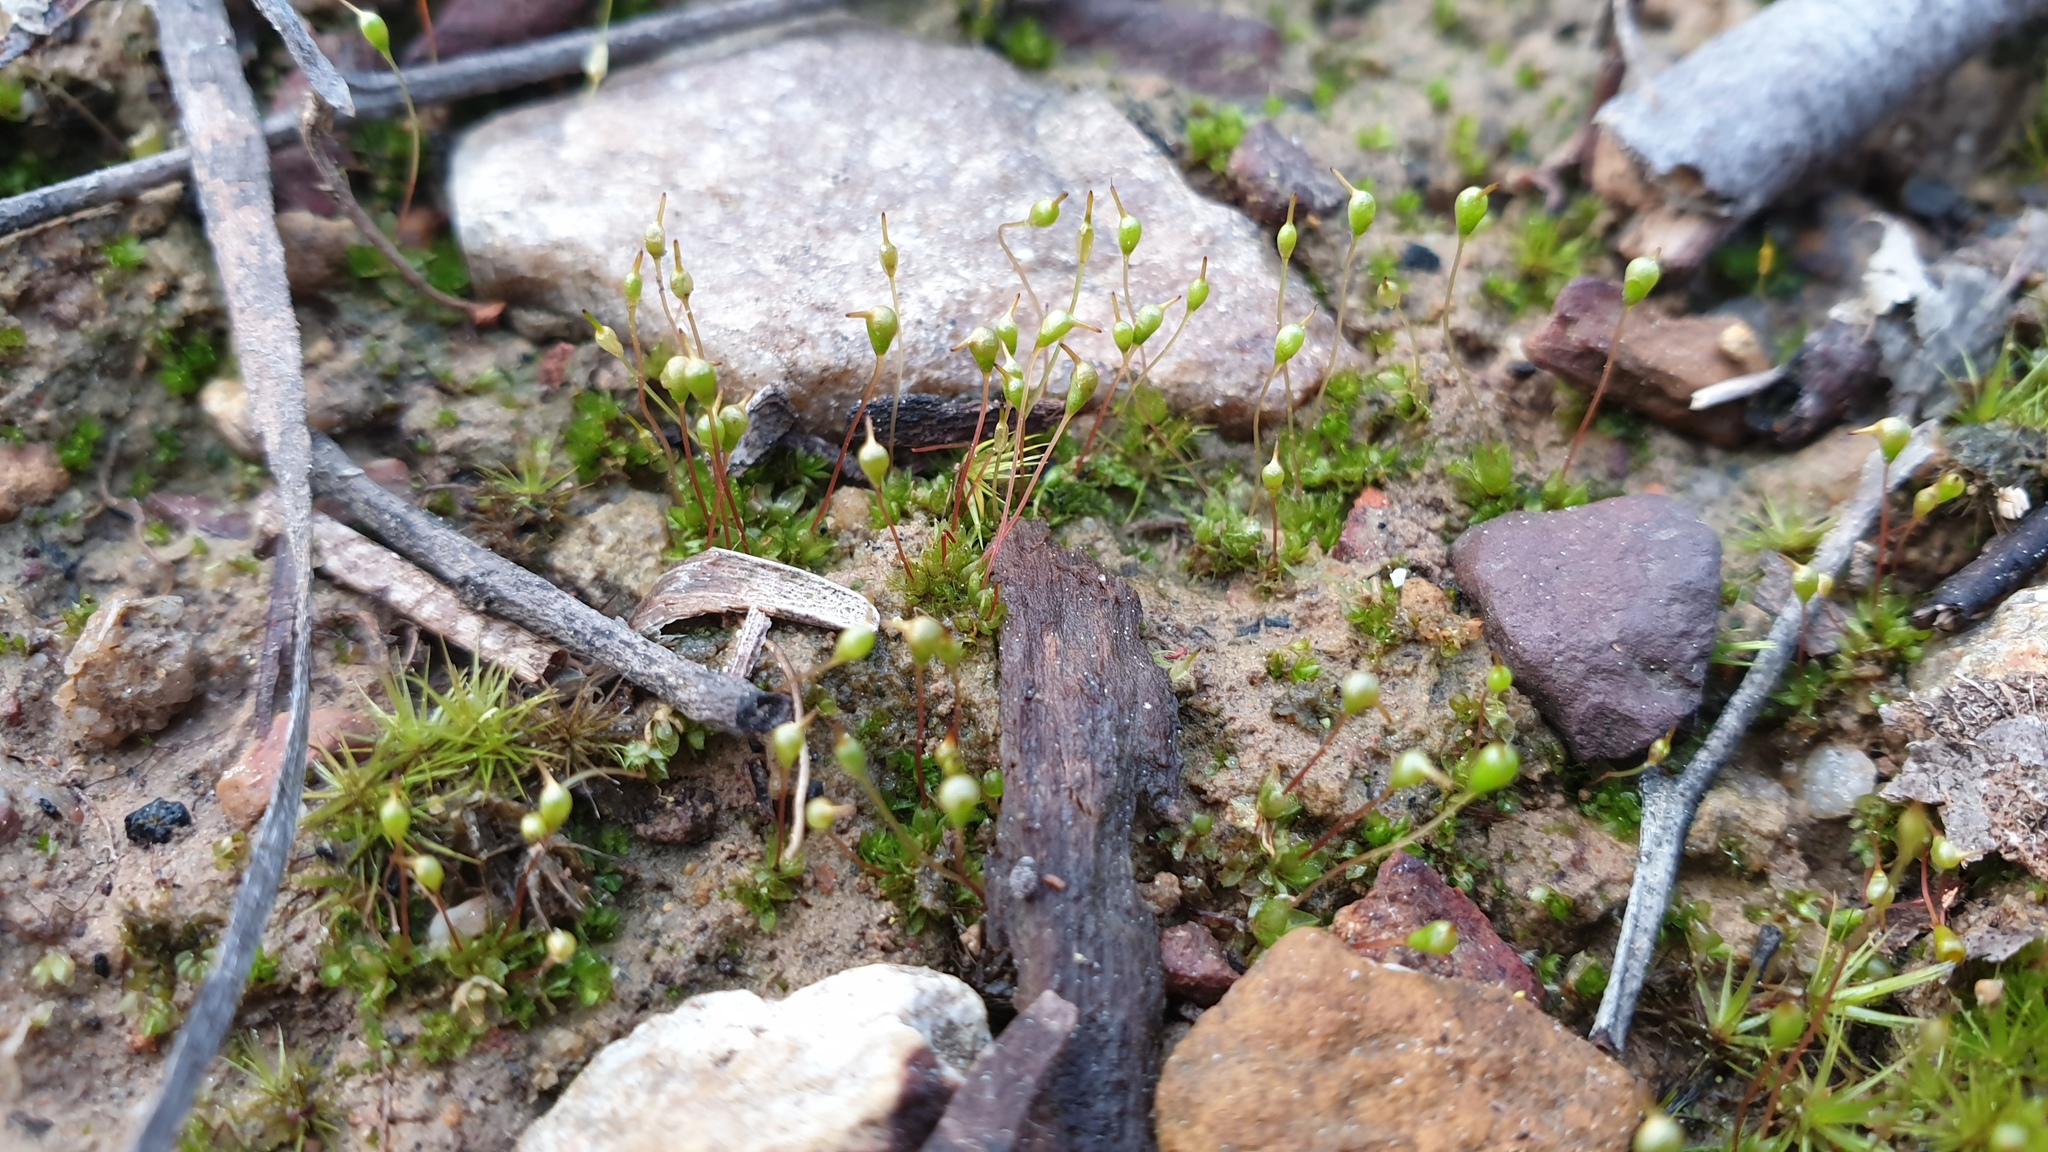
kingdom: Plantae
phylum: Bryophyta
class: Bryopsida
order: Funariales
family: Funariaceae
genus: Entosthodon
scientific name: Entosthodon subnudus
